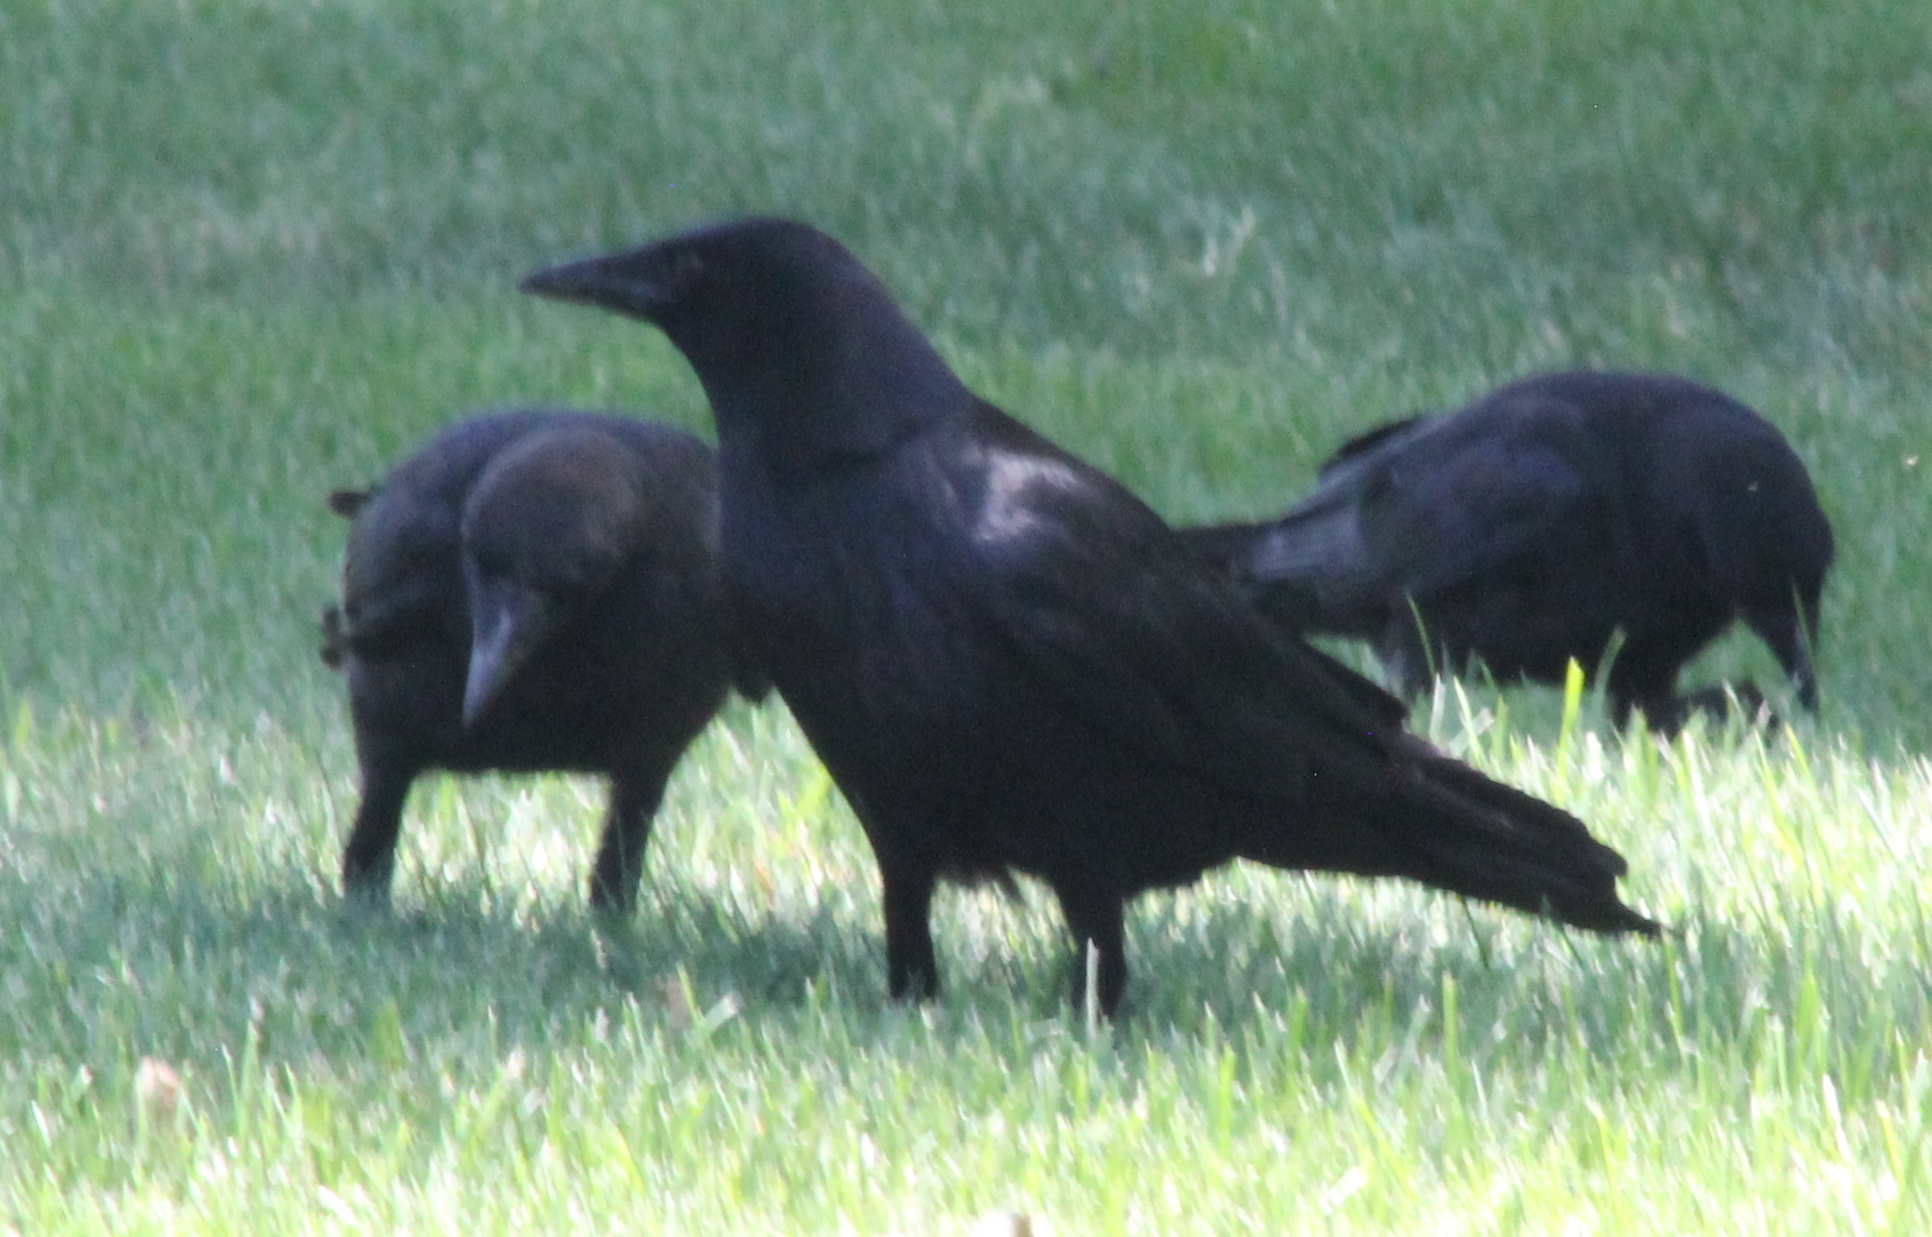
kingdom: Animalia
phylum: Chordata
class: Aves
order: Passeriformes
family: Corvidae
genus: Corvus
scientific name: Corvus brachyrhynchos
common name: American crow
